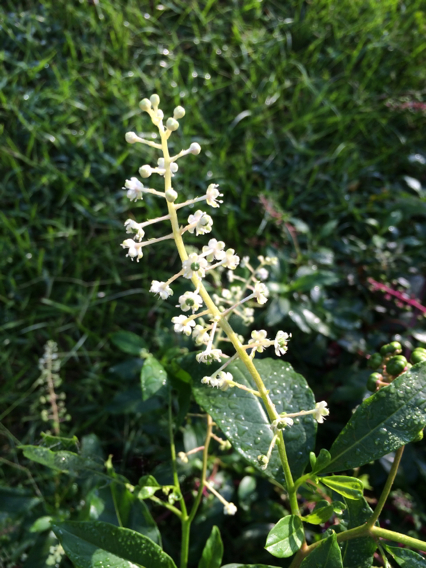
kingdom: Plantae
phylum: Tracheophyta
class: Magnoliopsida
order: Caryophyllales
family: Phytolaccaceae
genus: Phytolacca
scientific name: Phytolacca americana
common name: American pokeweed
